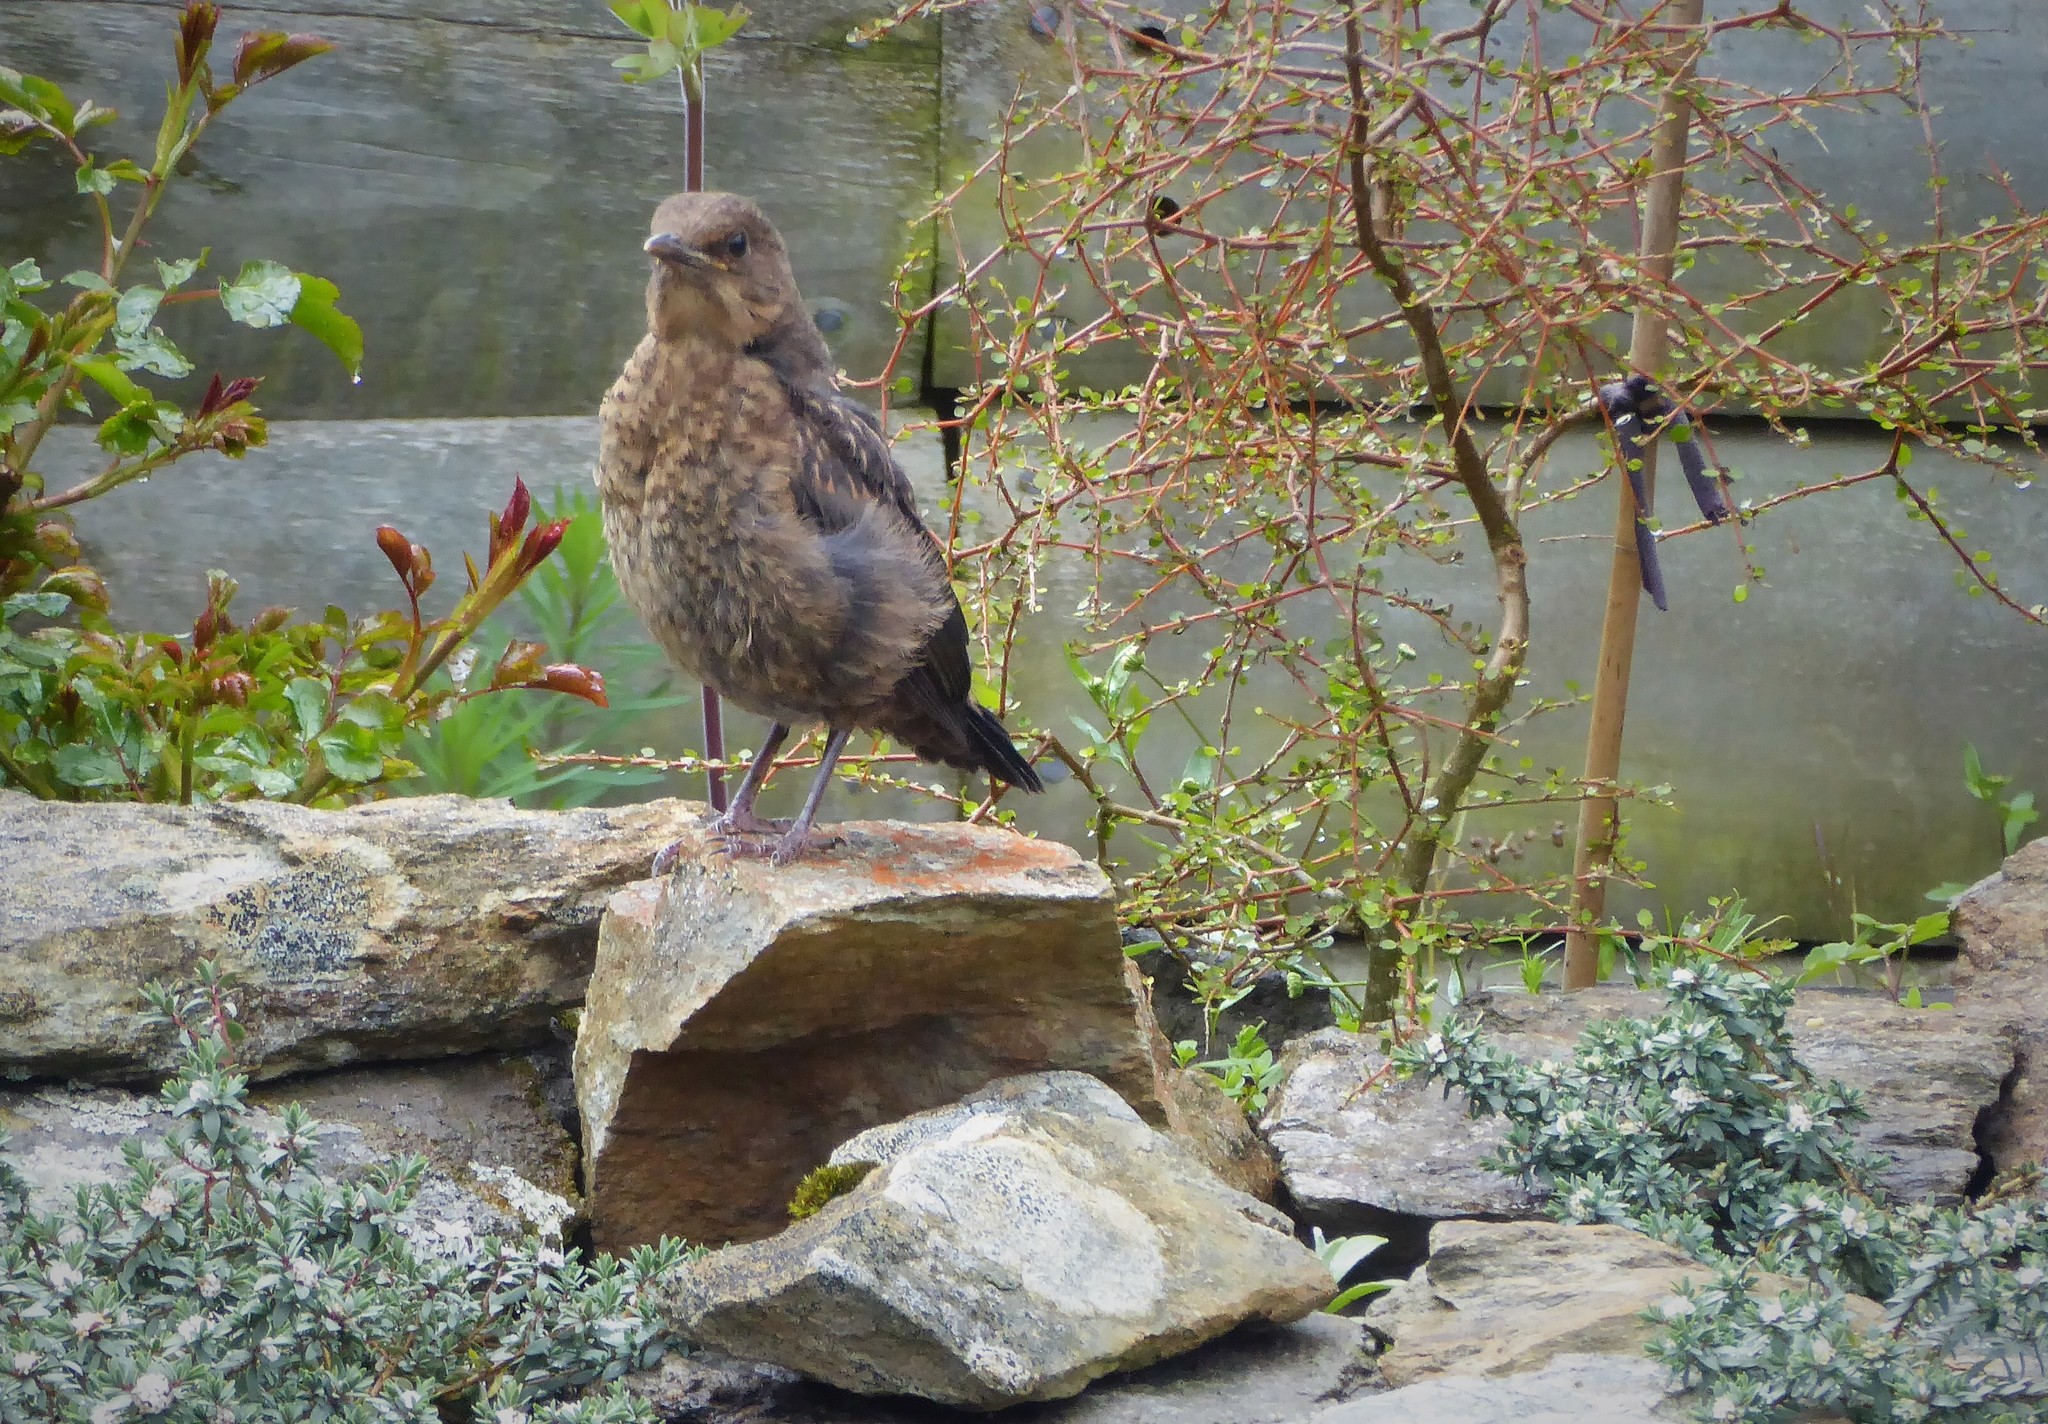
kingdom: Animalia
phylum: Chordata
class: Aves
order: Passeriformes
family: Turdidae
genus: Turdus
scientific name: Turdus merula
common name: Common blackbird
